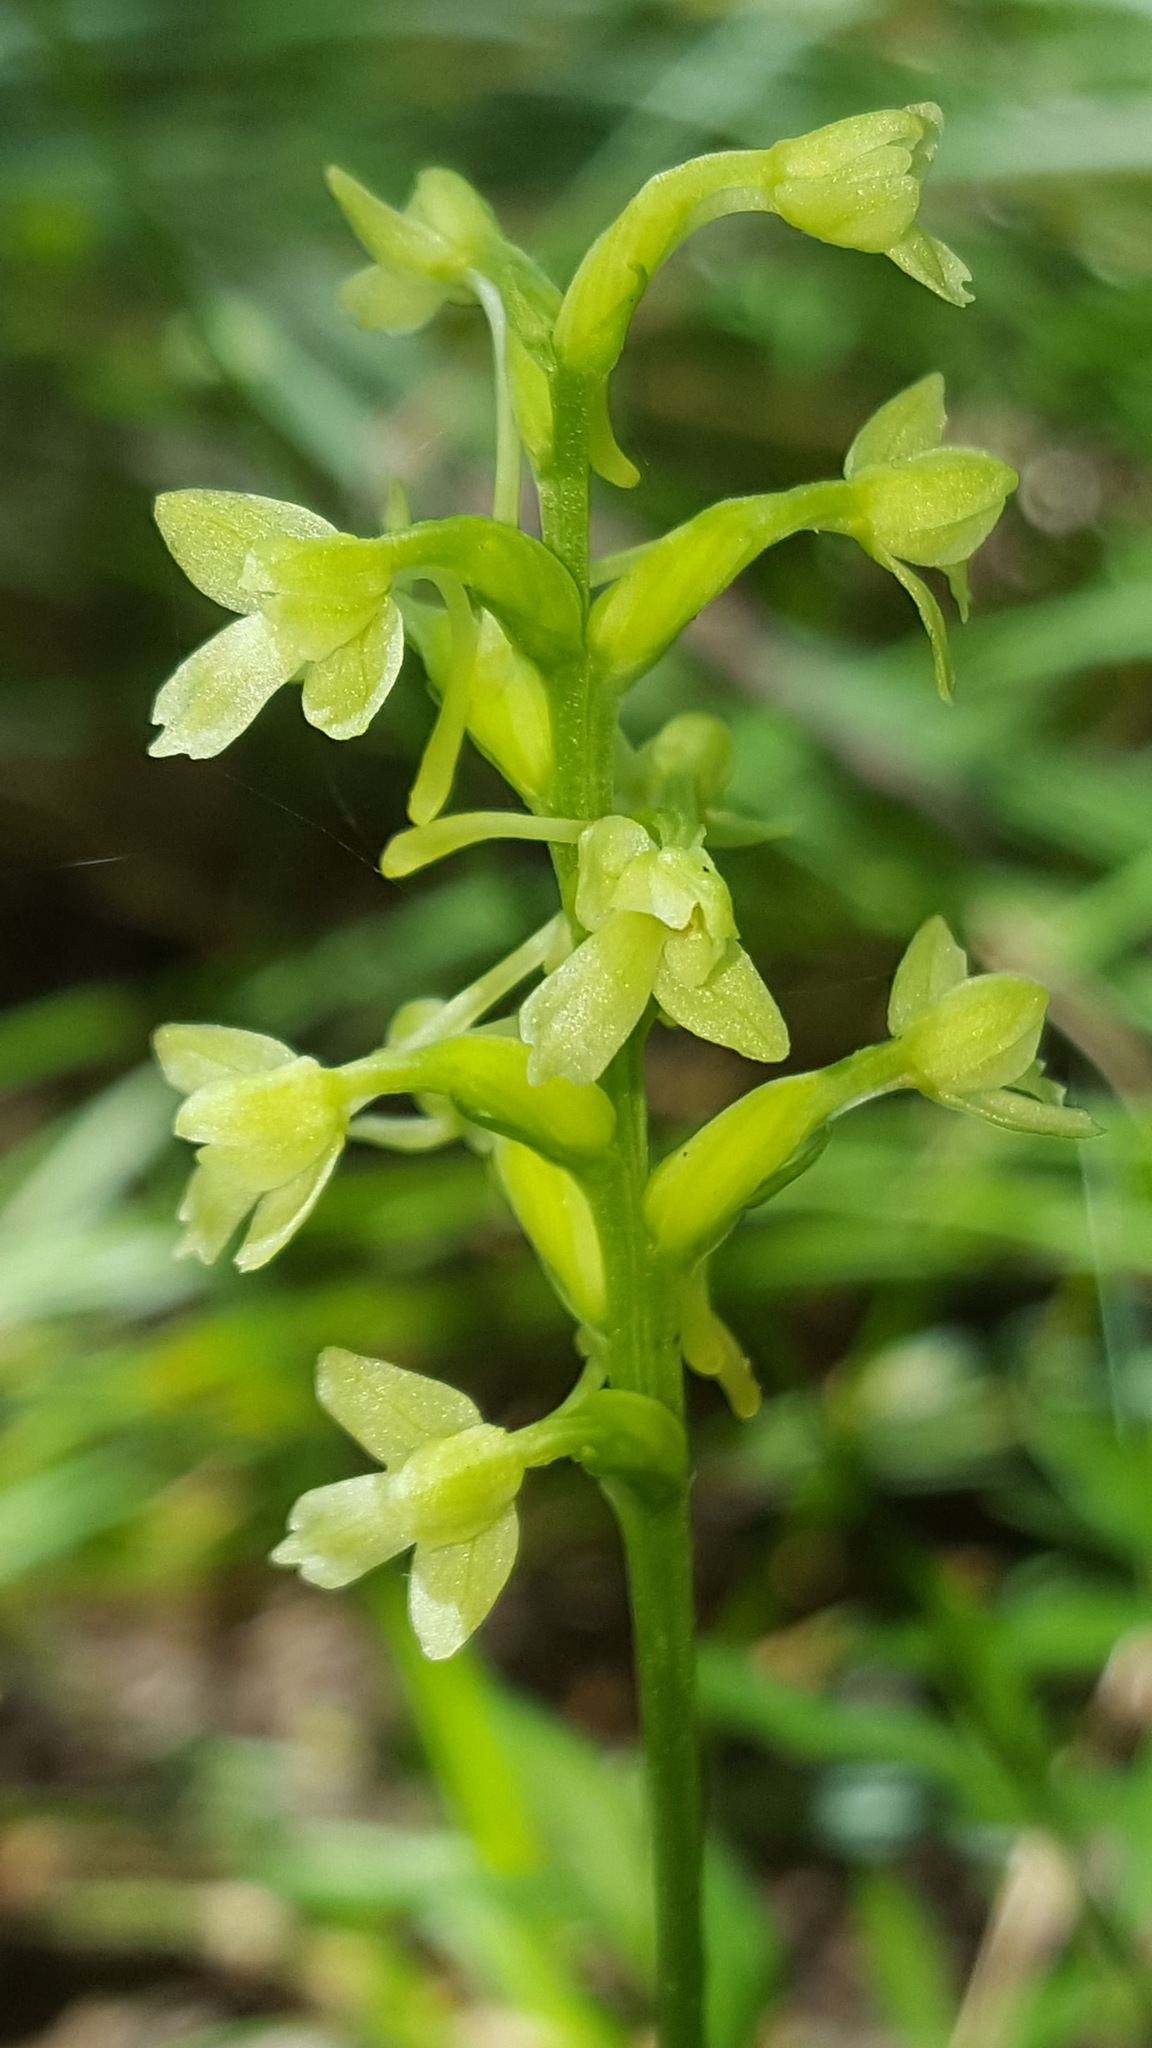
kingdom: Plantae
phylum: Tracheophyta
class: Liliopsida
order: Asparagales
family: Orchidaceae
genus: Platanthera
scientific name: Platanthera clavellata
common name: Club-spur orchid
